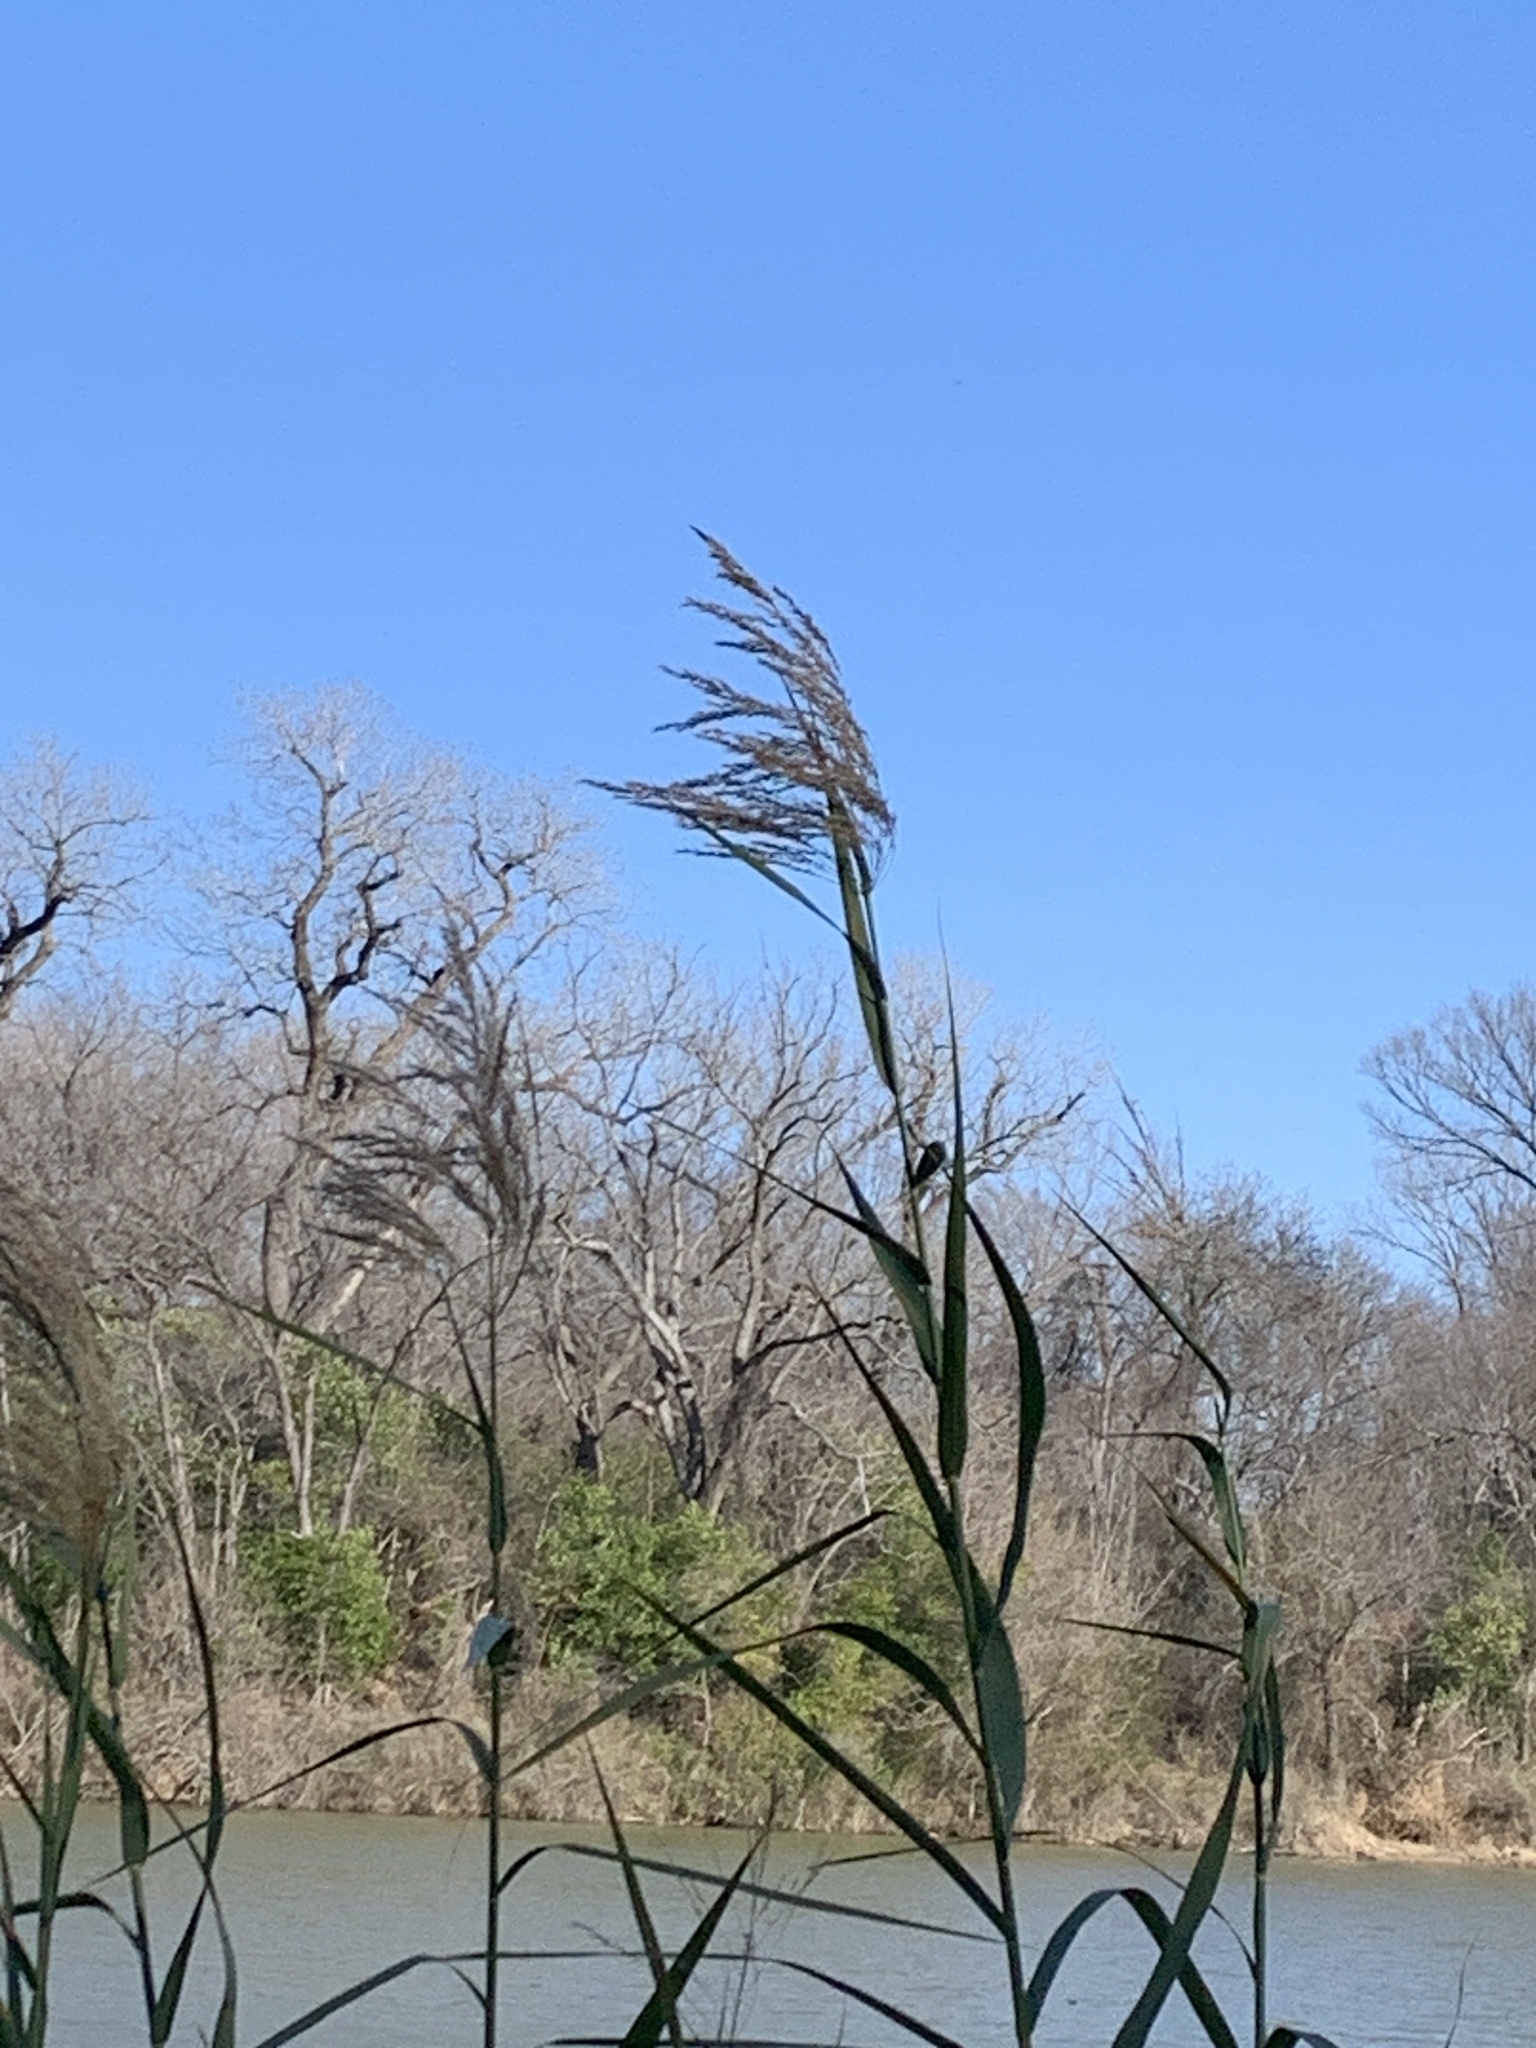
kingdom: Plantae
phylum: Tracheophyta
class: Liliopsida
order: Poales
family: Poaceae
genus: Phragmites
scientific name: Phragmites australis
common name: Common reed
